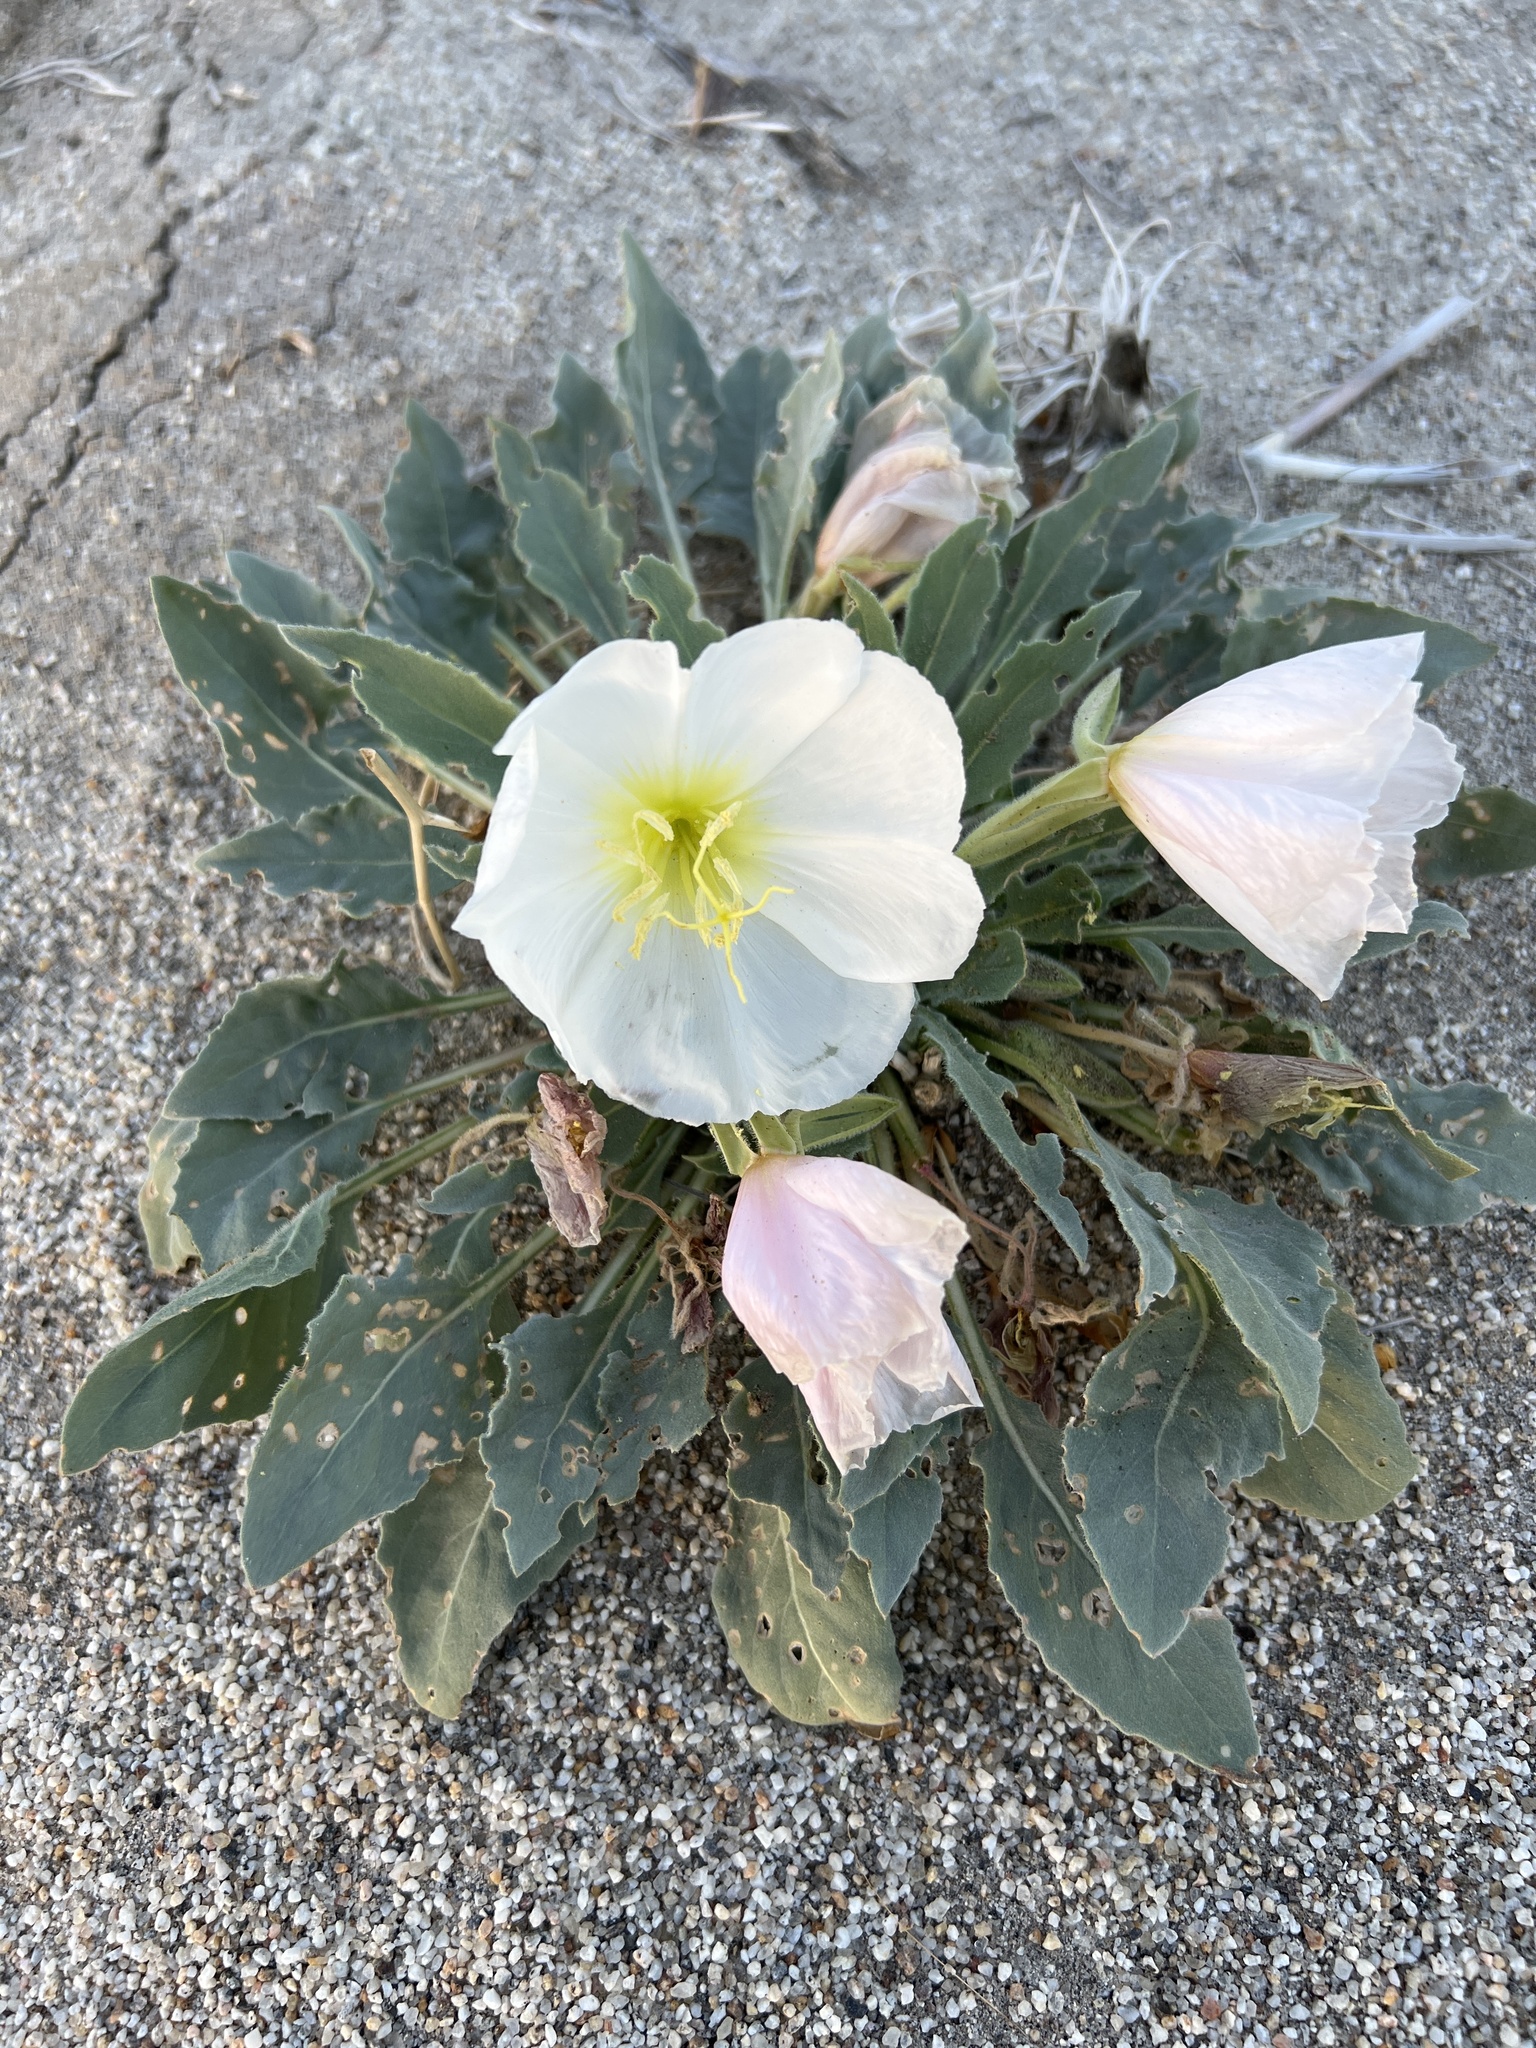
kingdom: Plantae
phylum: Tracheophyta
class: Magnoliopsida
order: Myrtales
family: Onagraceae
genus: Oenothera
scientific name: Oenothera deltoides
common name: Basket evening-primrose
